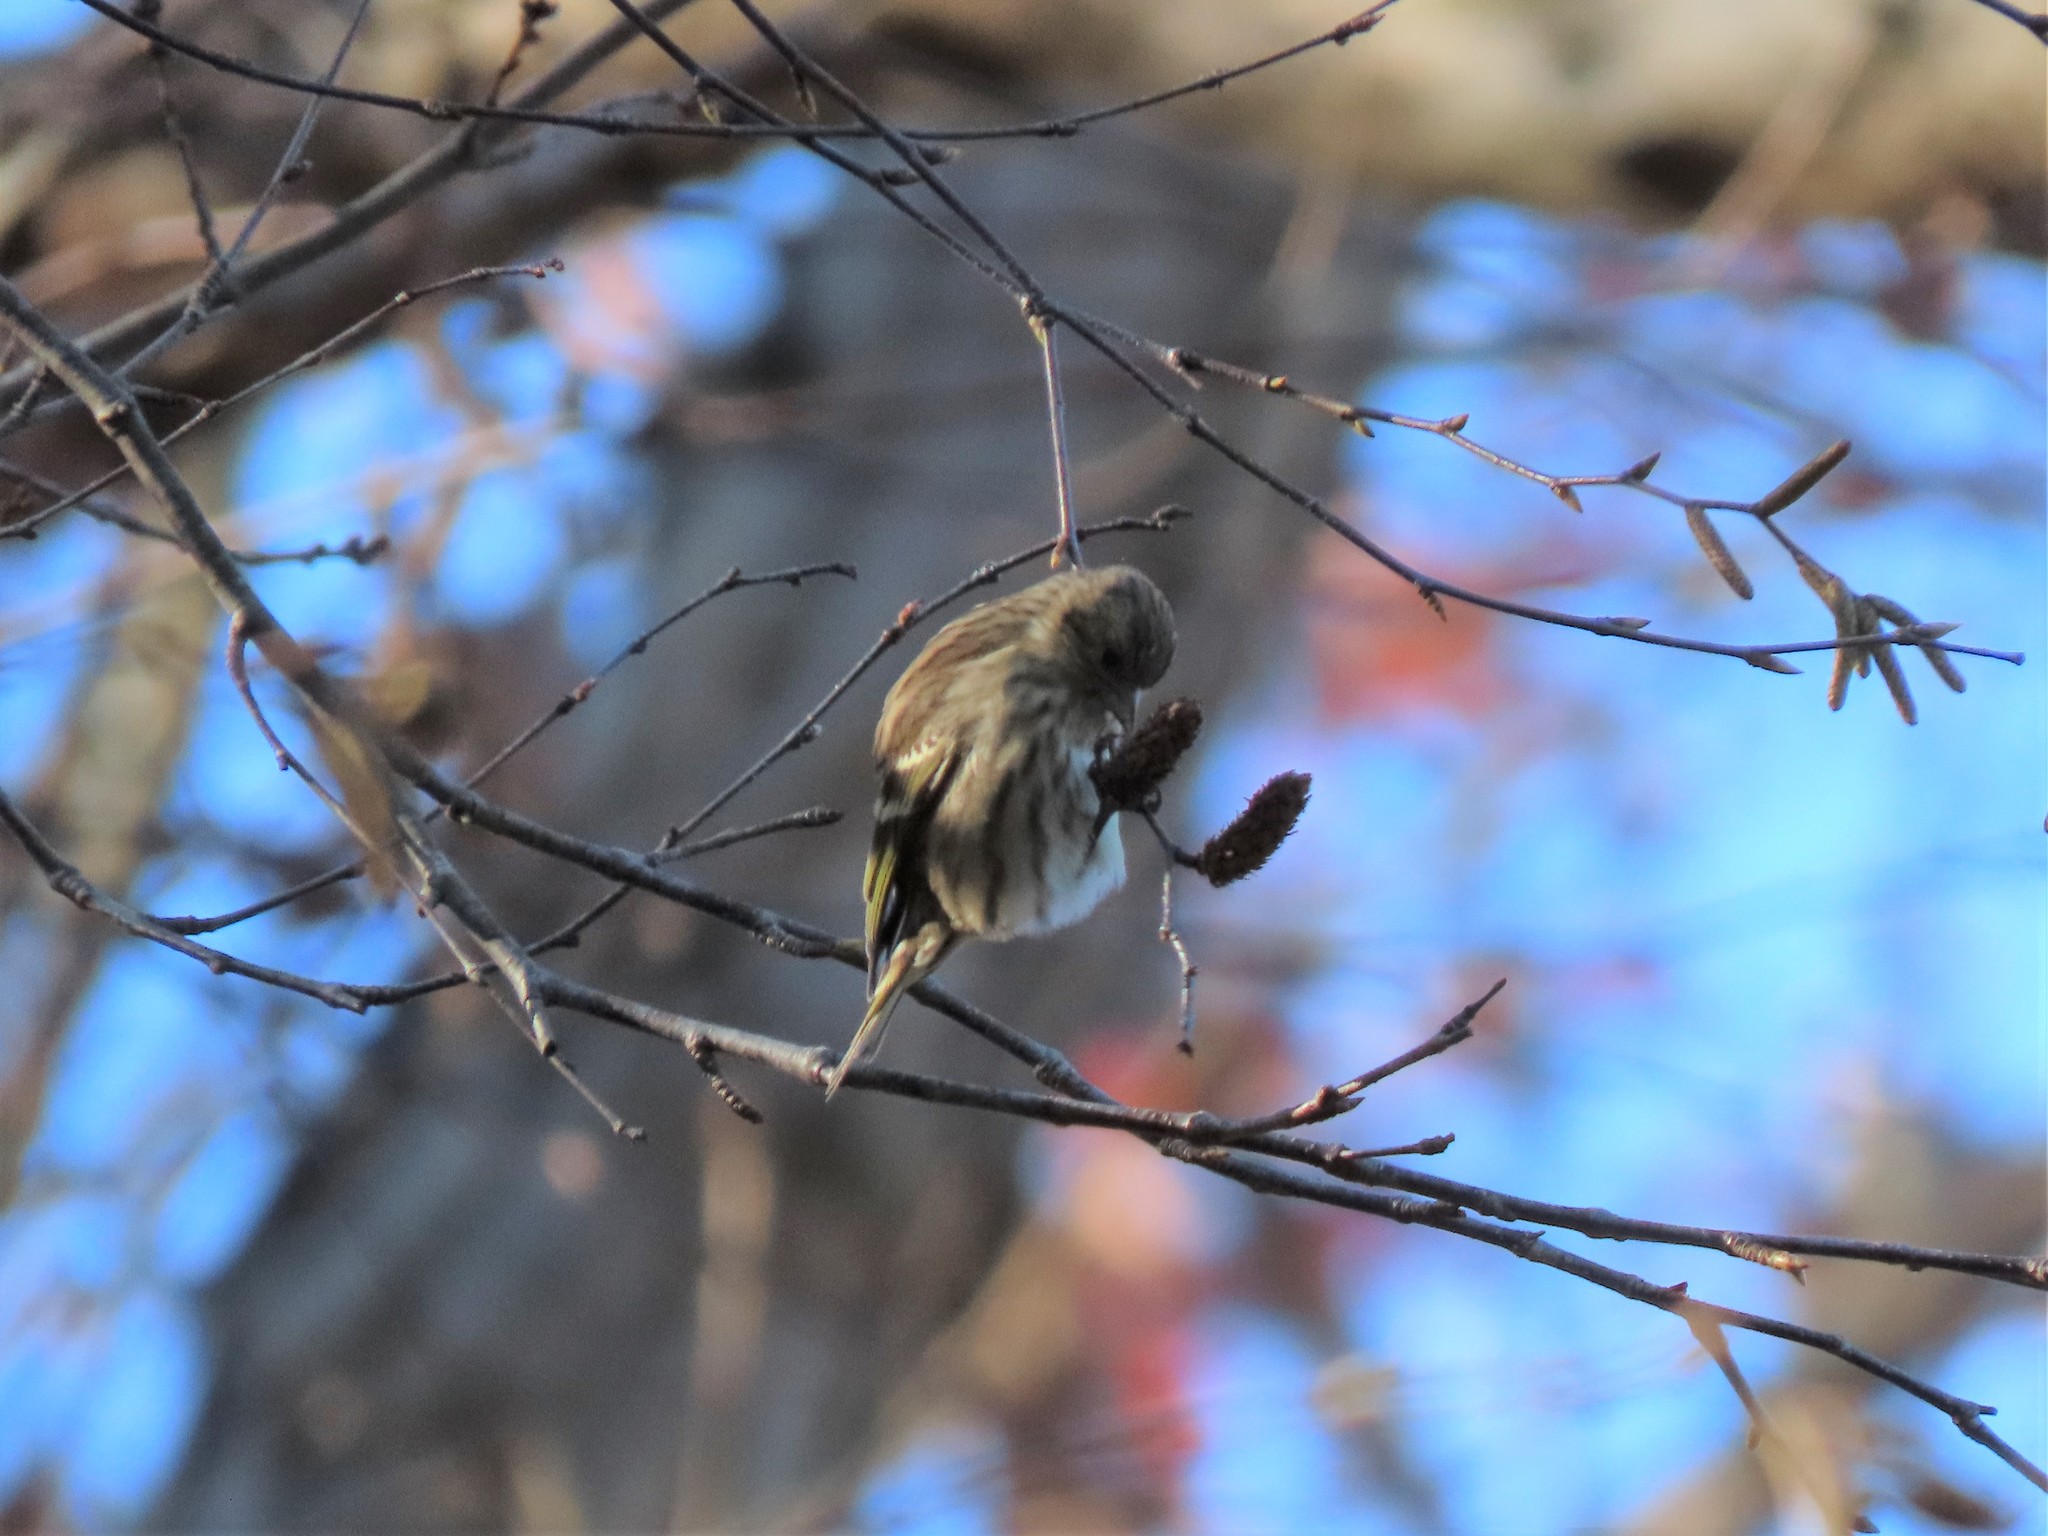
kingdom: Animalia
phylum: Chordata
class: Aves
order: Passeriformes
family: Fringillidae
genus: Spinus
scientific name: Spinus pinus
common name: Pine siskin
